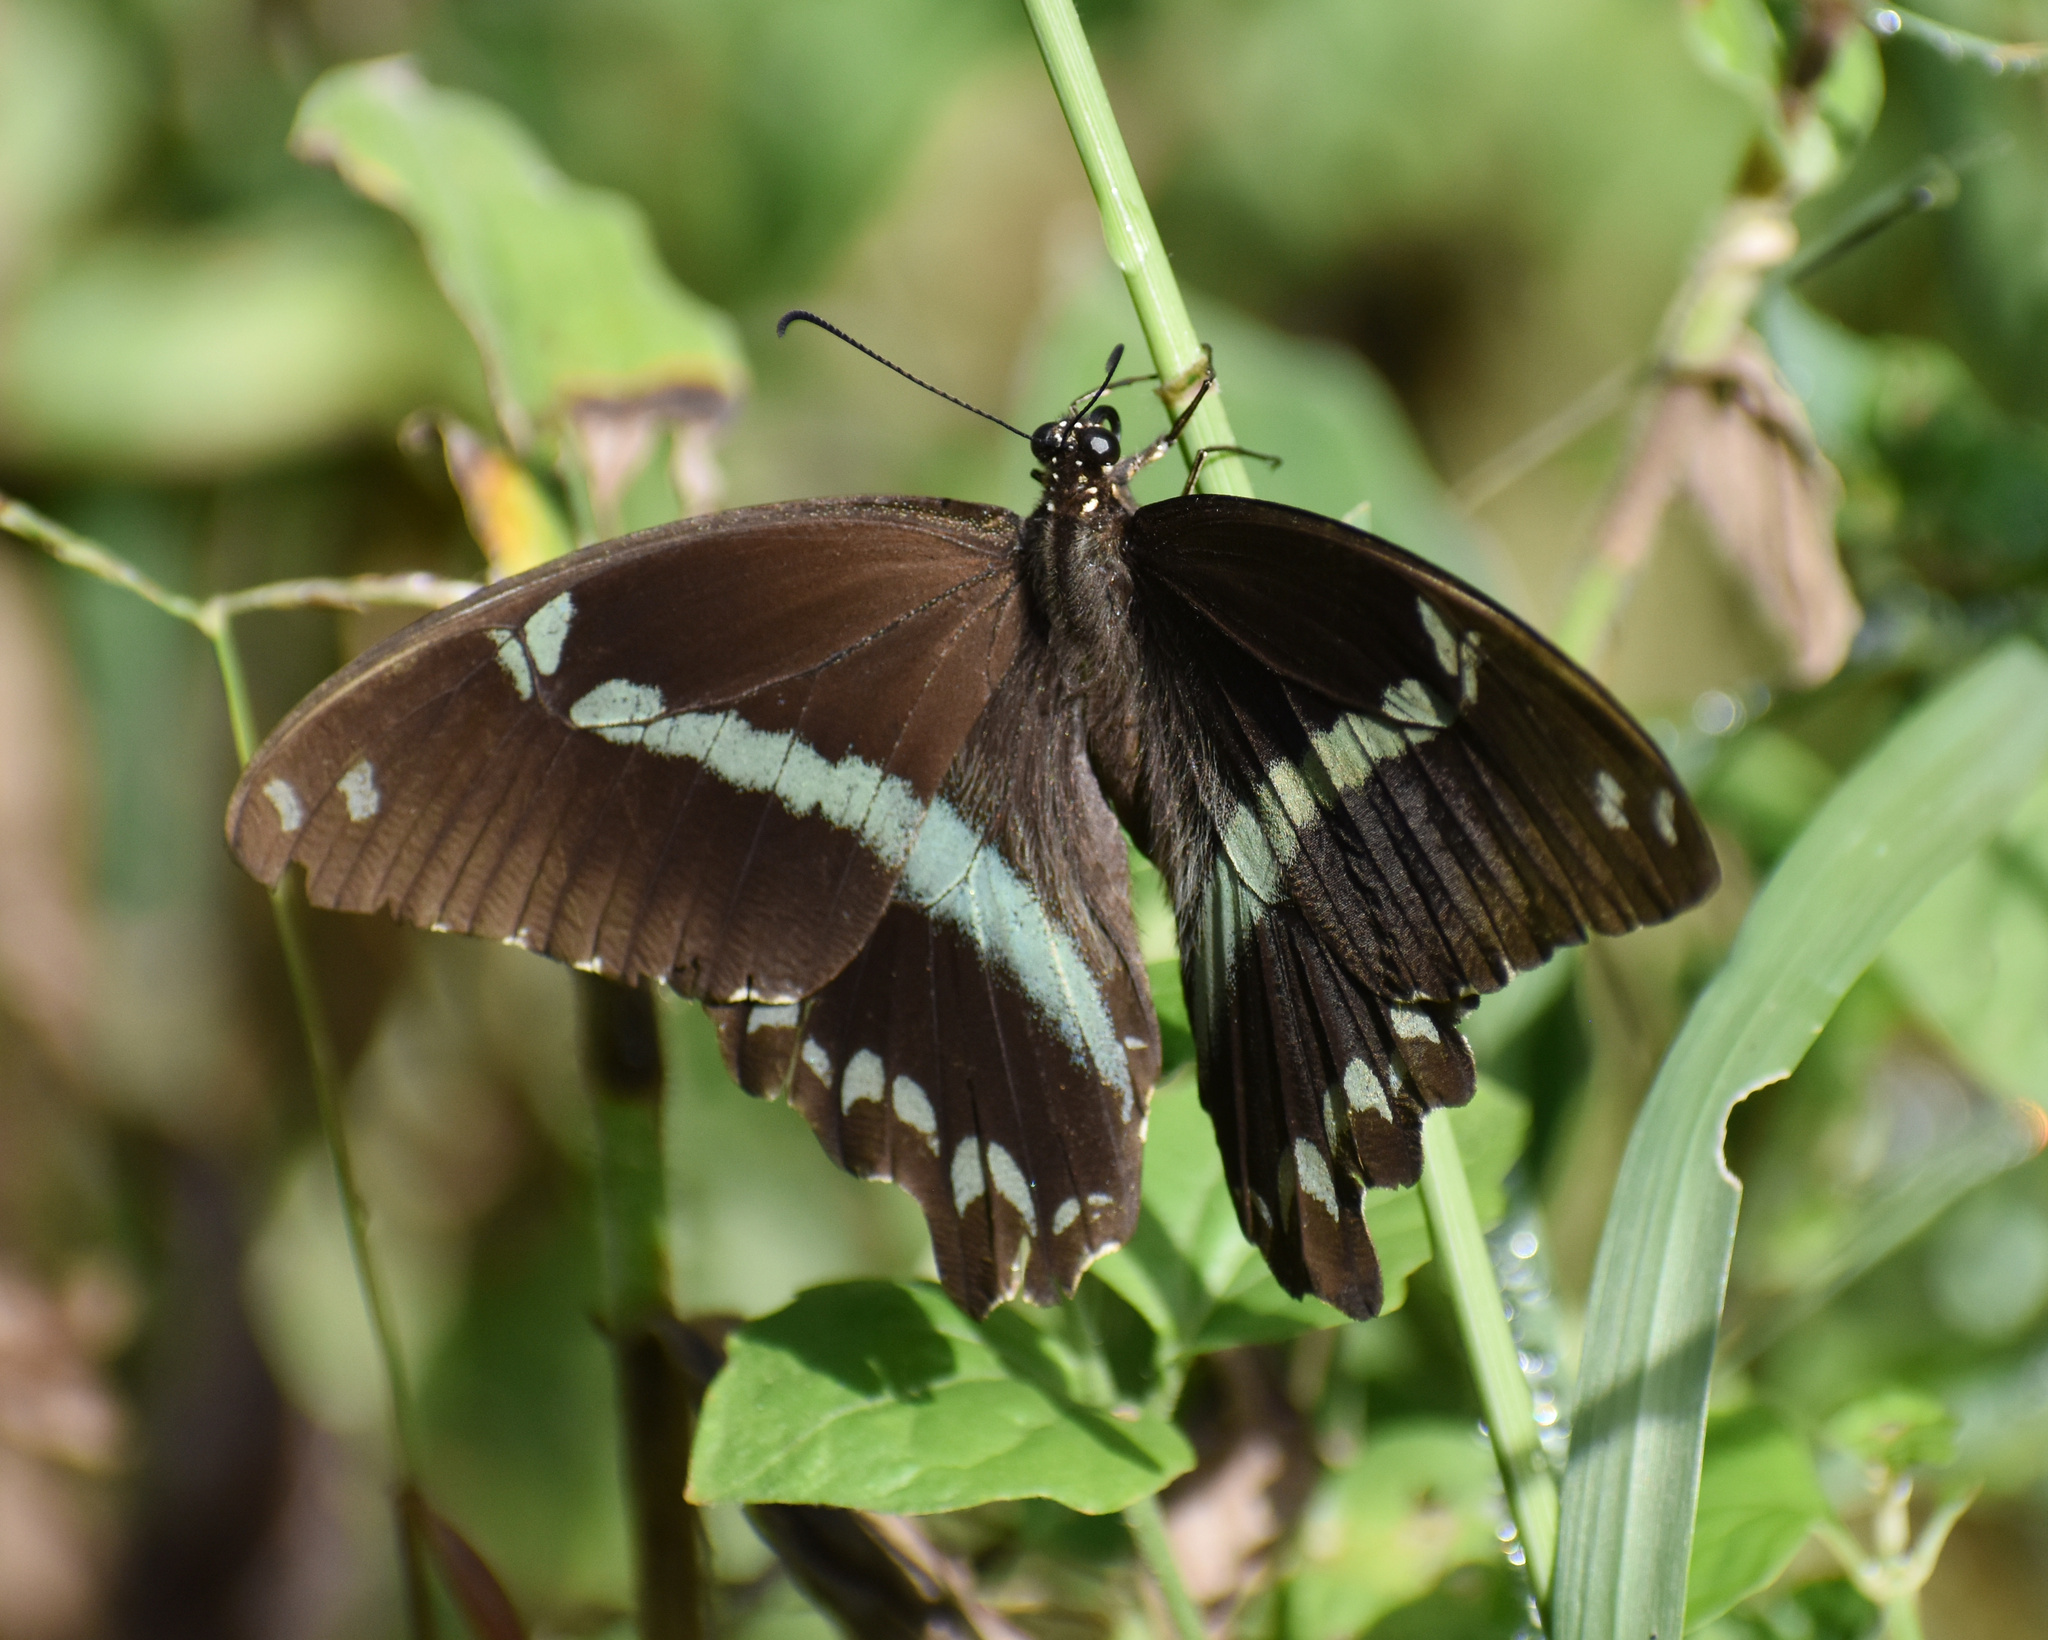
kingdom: Animalia
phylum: Arthropoda
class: Insecta
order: Lepidoptera
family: Papilionidae
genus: Papilio
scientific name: Papilio nireus
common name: Greenbanded swallowtail
